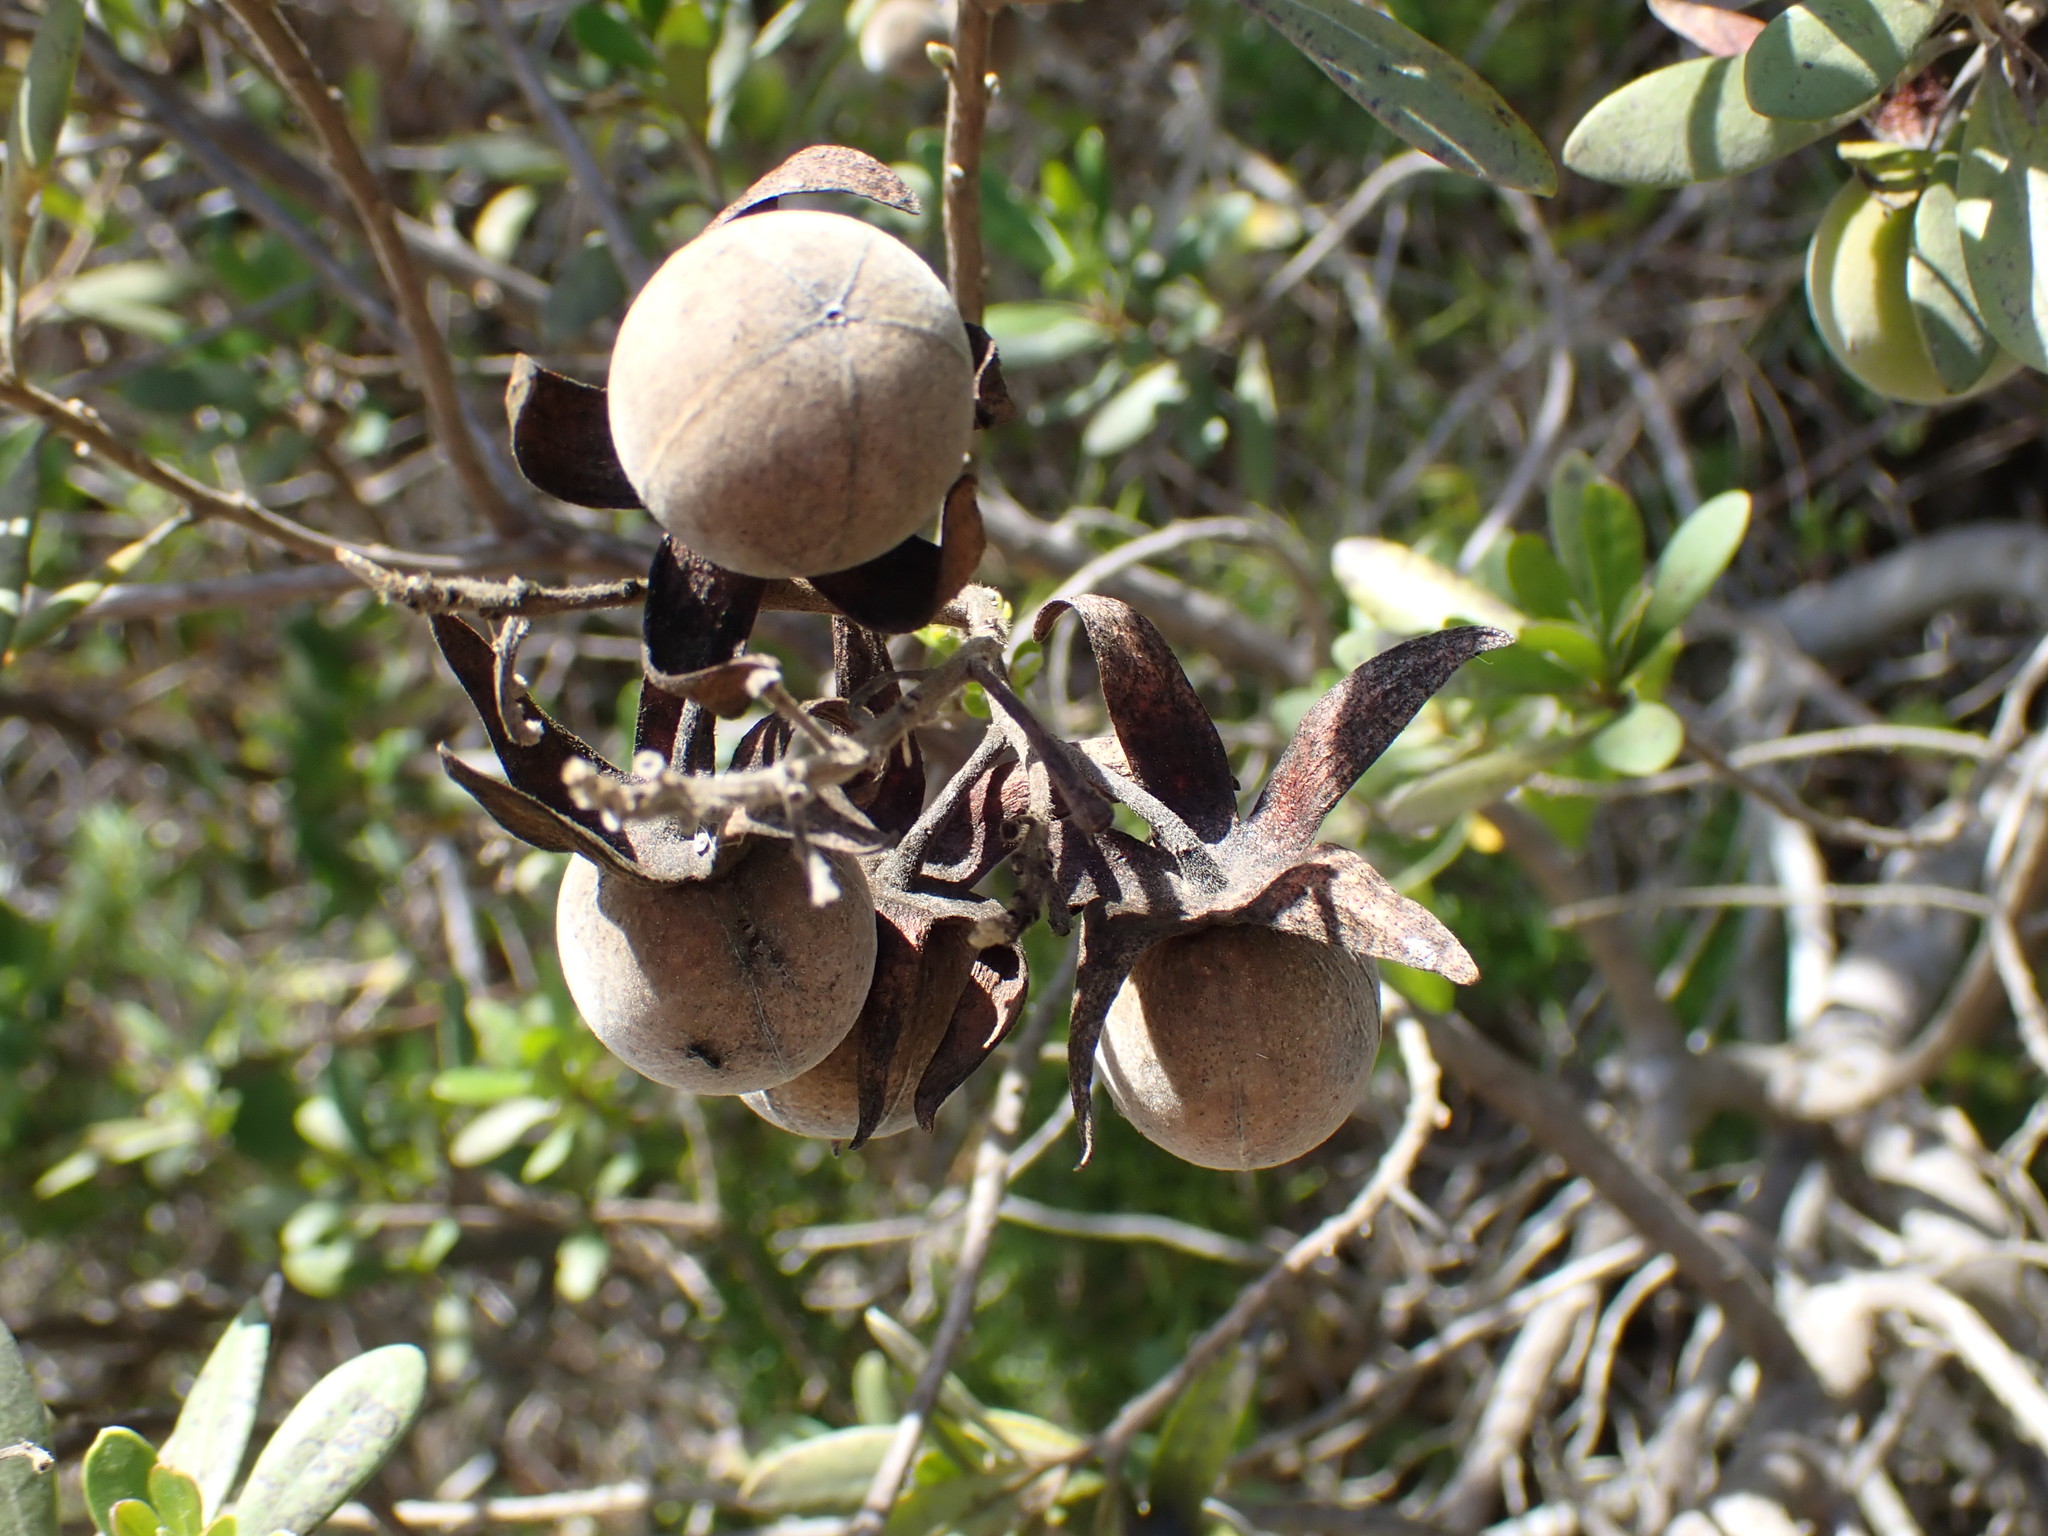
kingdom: Plantae
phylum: Tracheophyta
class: Magnoliopsida
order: Ericales
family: Ebenaceae
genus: Diospyros
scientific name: Diospyros dichrophylla
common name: Common star-apple
